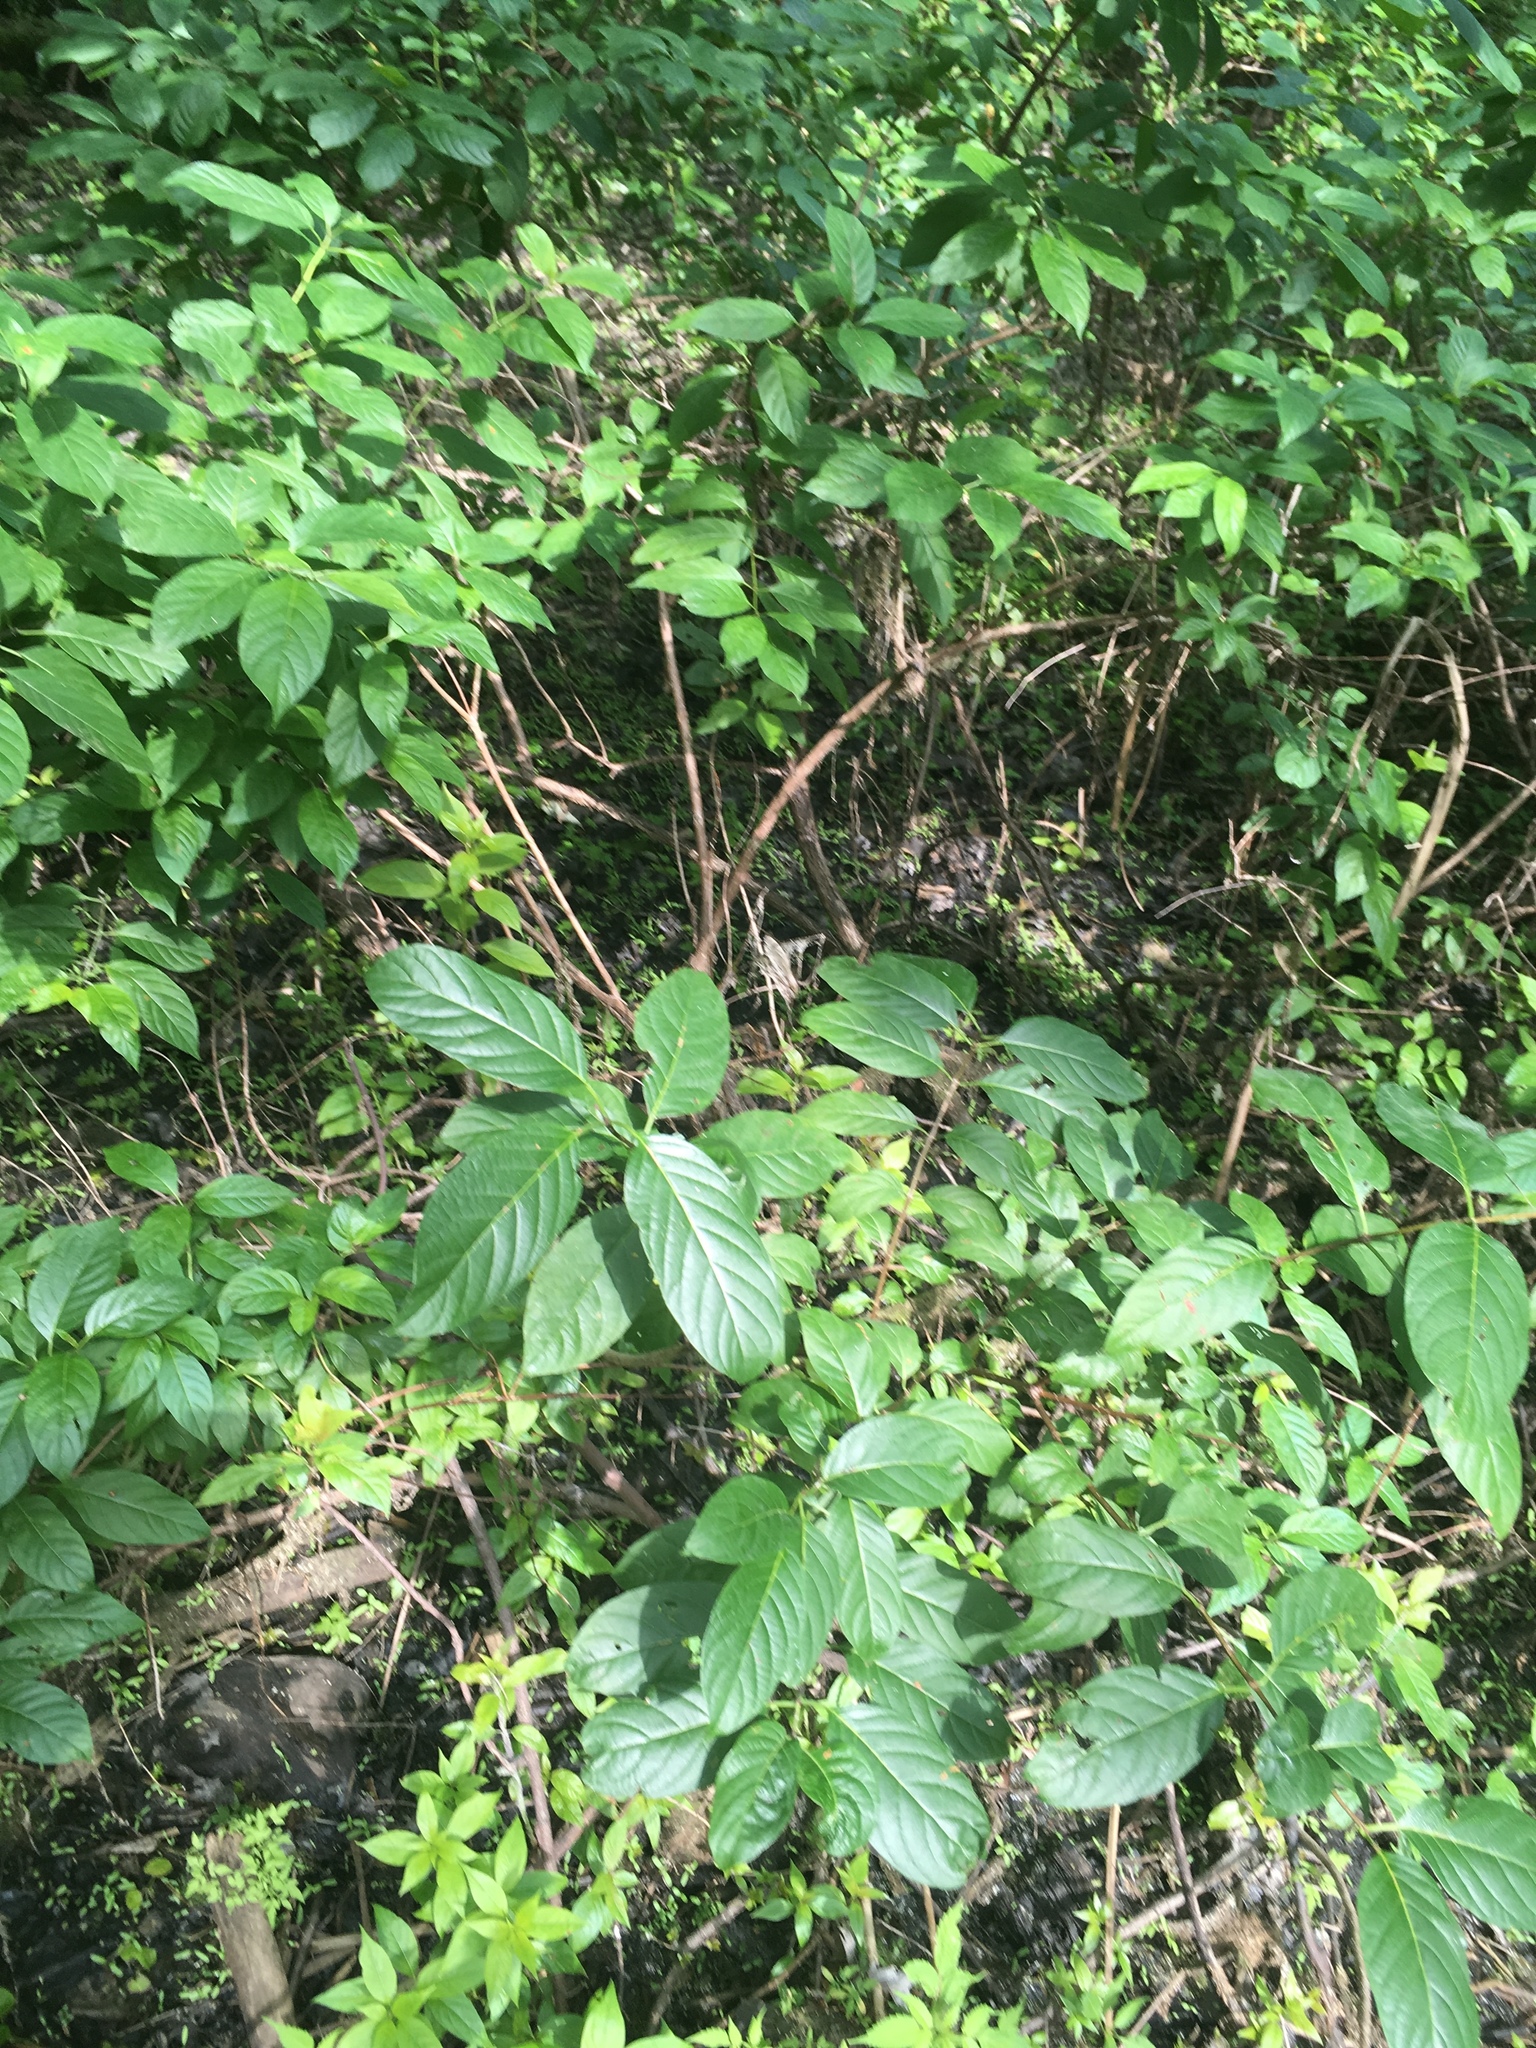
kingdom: Plantae
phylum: Tracheophyta
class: Magnoliopsida
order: Gentianales
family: Rubiaceae
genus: Cephalanthus
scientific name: Cephalanthus occidentalis
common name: Button-willow
